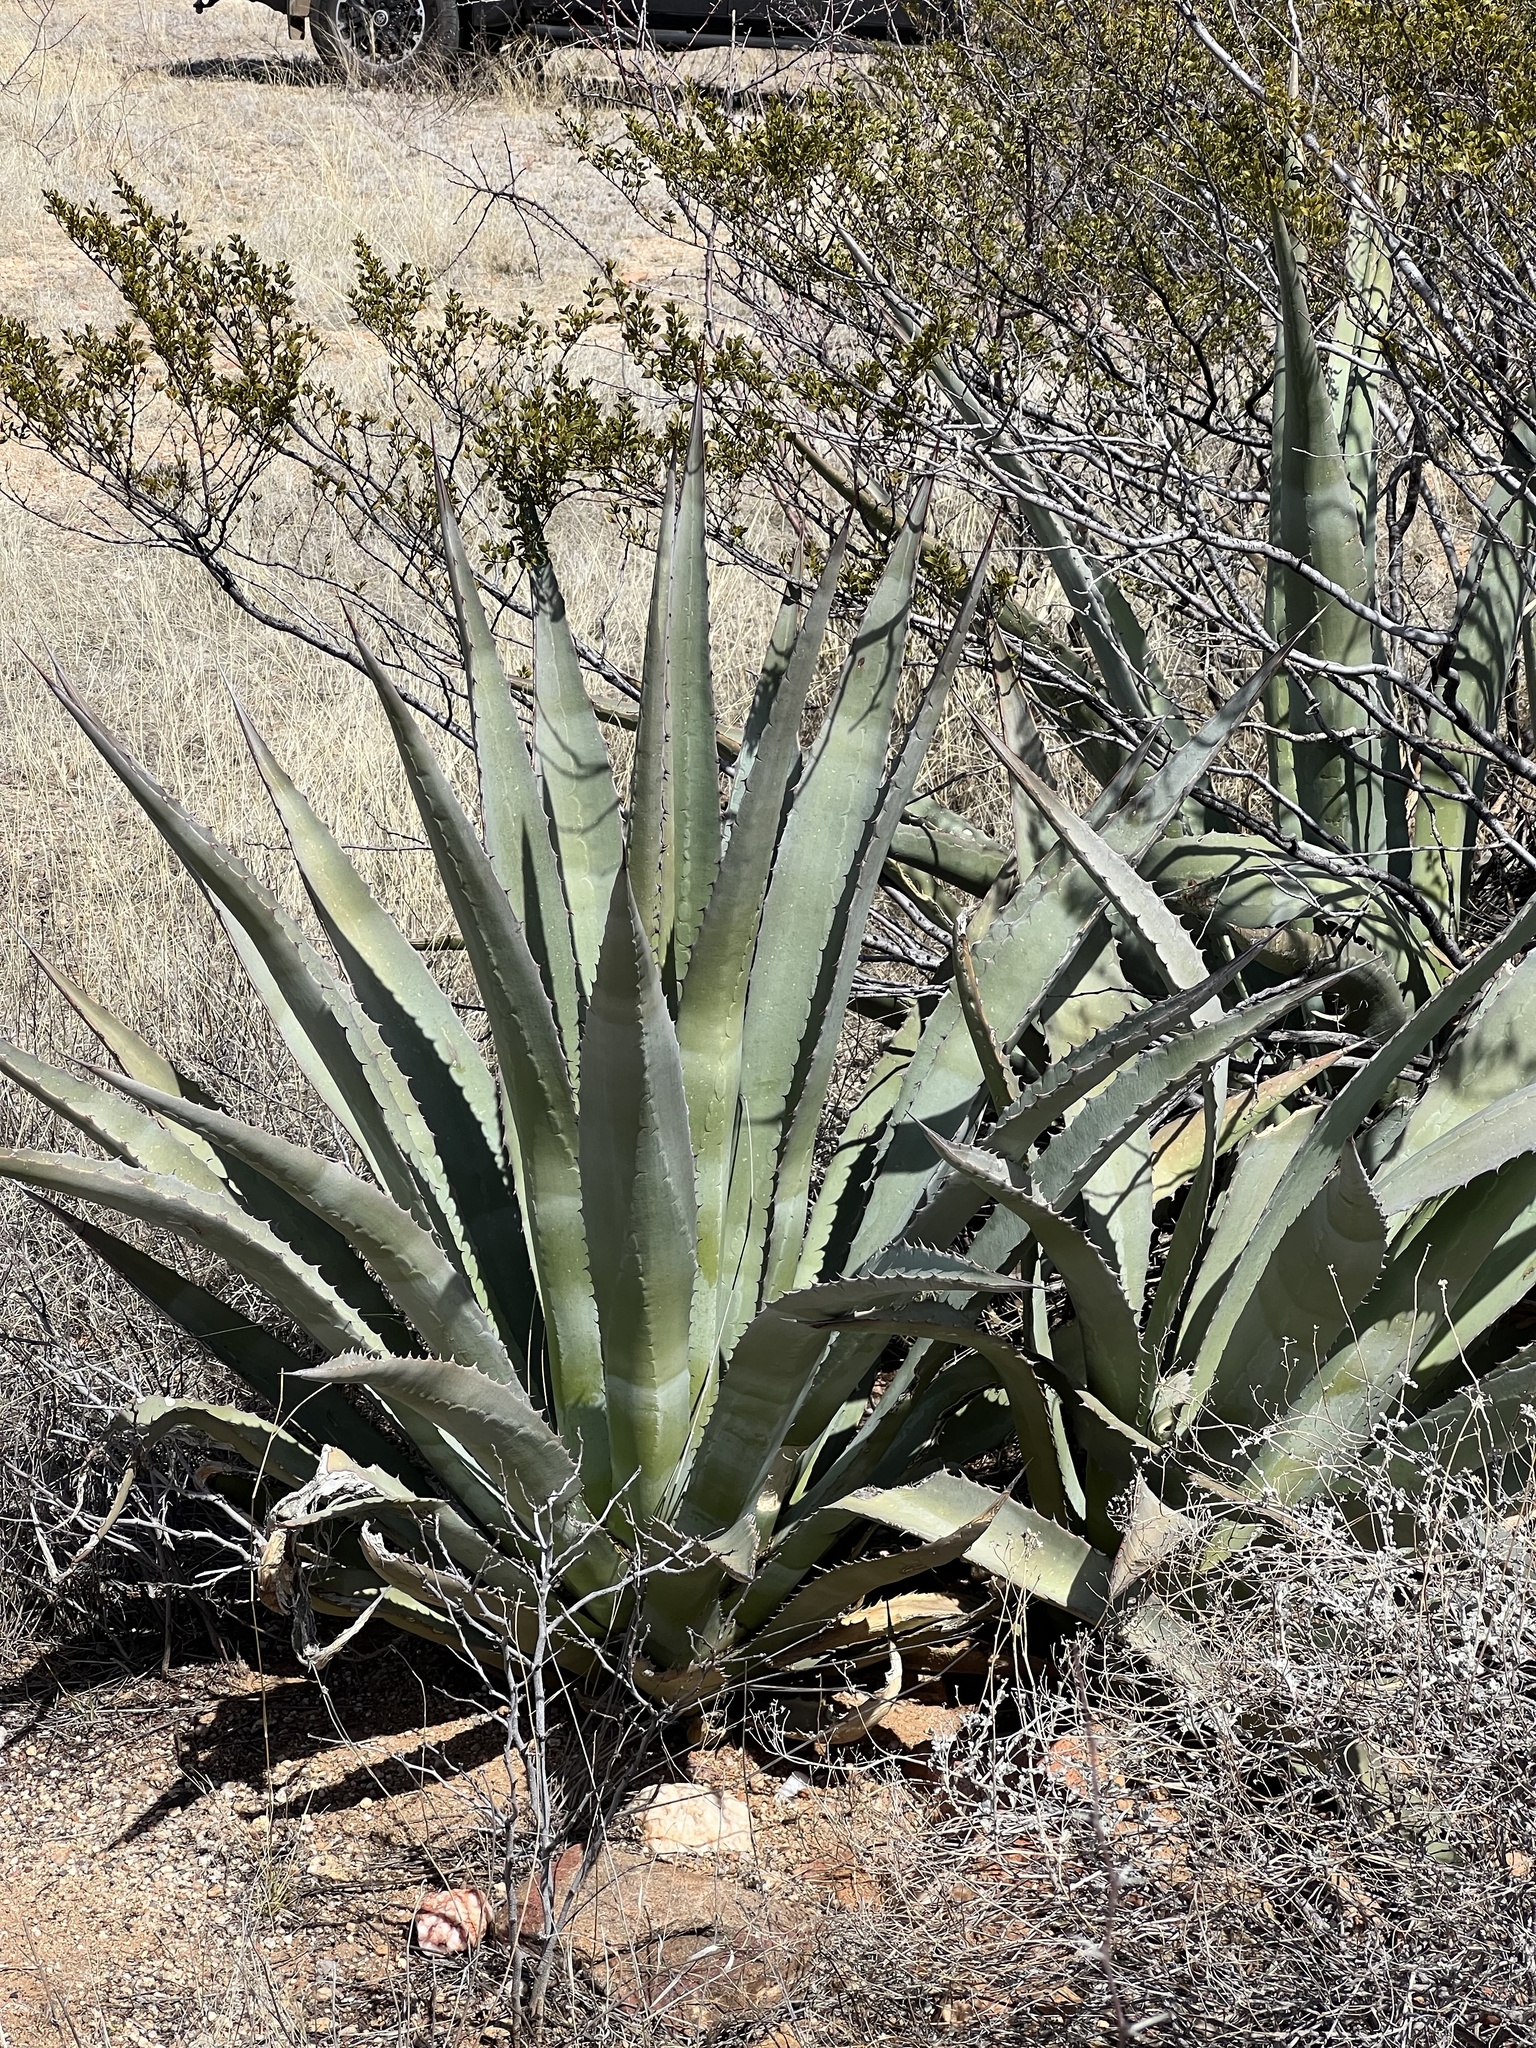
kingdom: Plantae
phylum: Tracheophyta
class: Liliopsida
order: Asparagales
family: Asparagaceae
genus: Agave
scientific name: Agave palmeri
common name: Palmer agave
